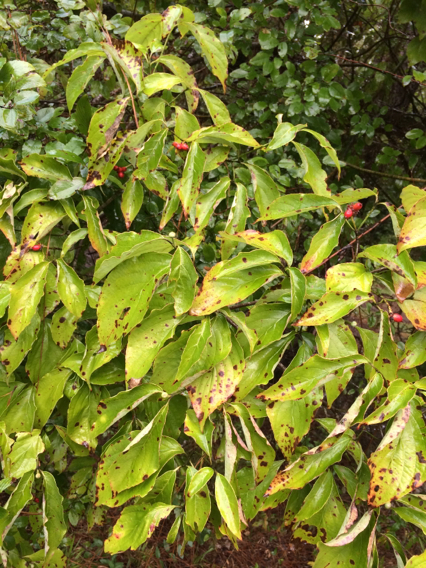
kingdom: Plantae
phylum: Tracheophyta
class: Magnoliopsida
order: Cornales
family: Cornaceae
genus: Cornus
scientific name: Cornus florida
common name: Flowering dogwood
